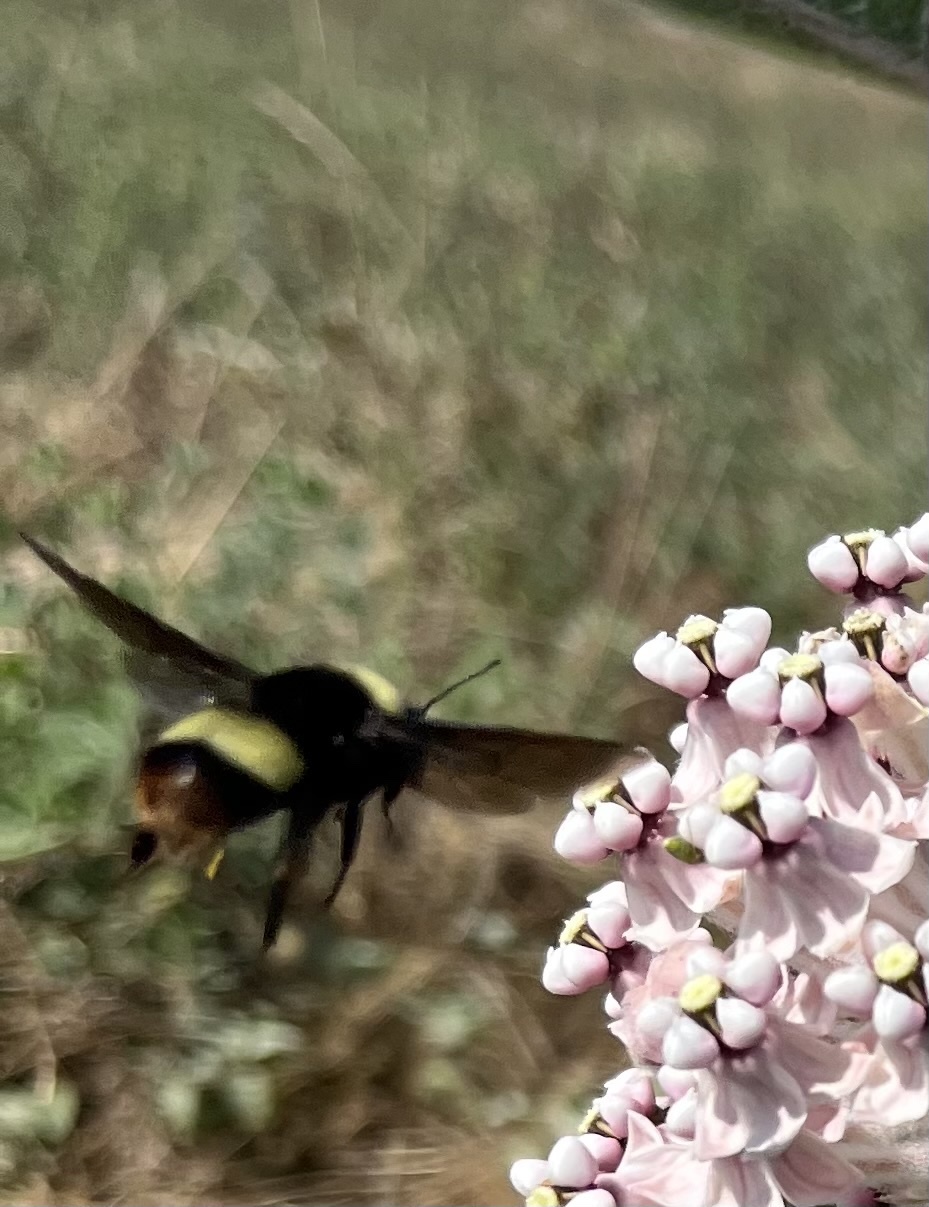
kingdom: Animalia
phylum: Arthropoda
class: Insecta
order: Hymenoptera
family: Apidae
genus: Bombus
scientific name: Bombus crotchii
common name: Crotch bumble bee
